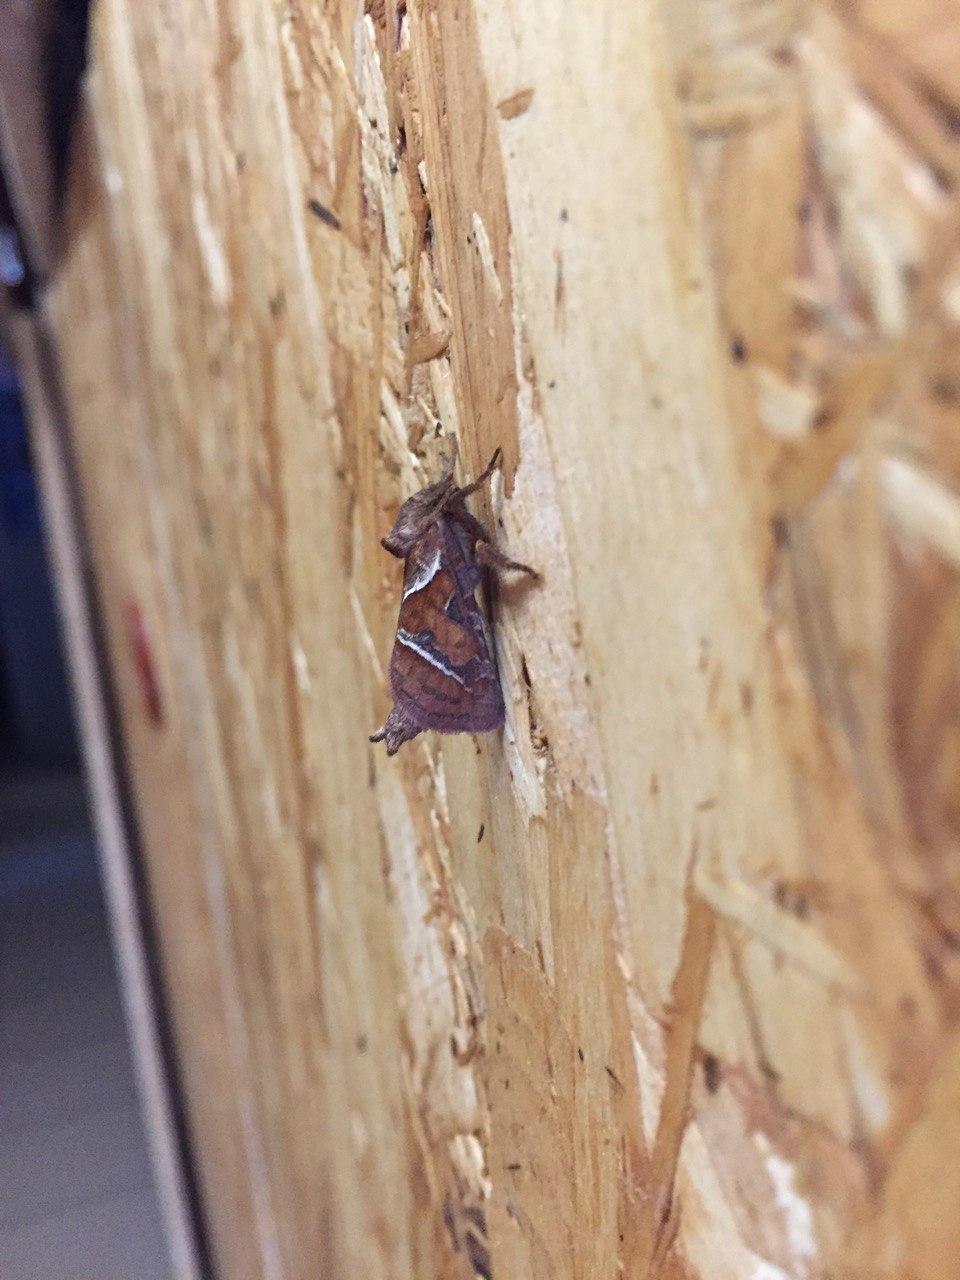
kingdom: Animalia
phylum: Arthropoda
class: Insecta
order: Lepidoptera
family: Hepialidae
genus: Triodia
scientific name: Triodia sylvina
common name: Orange swift
